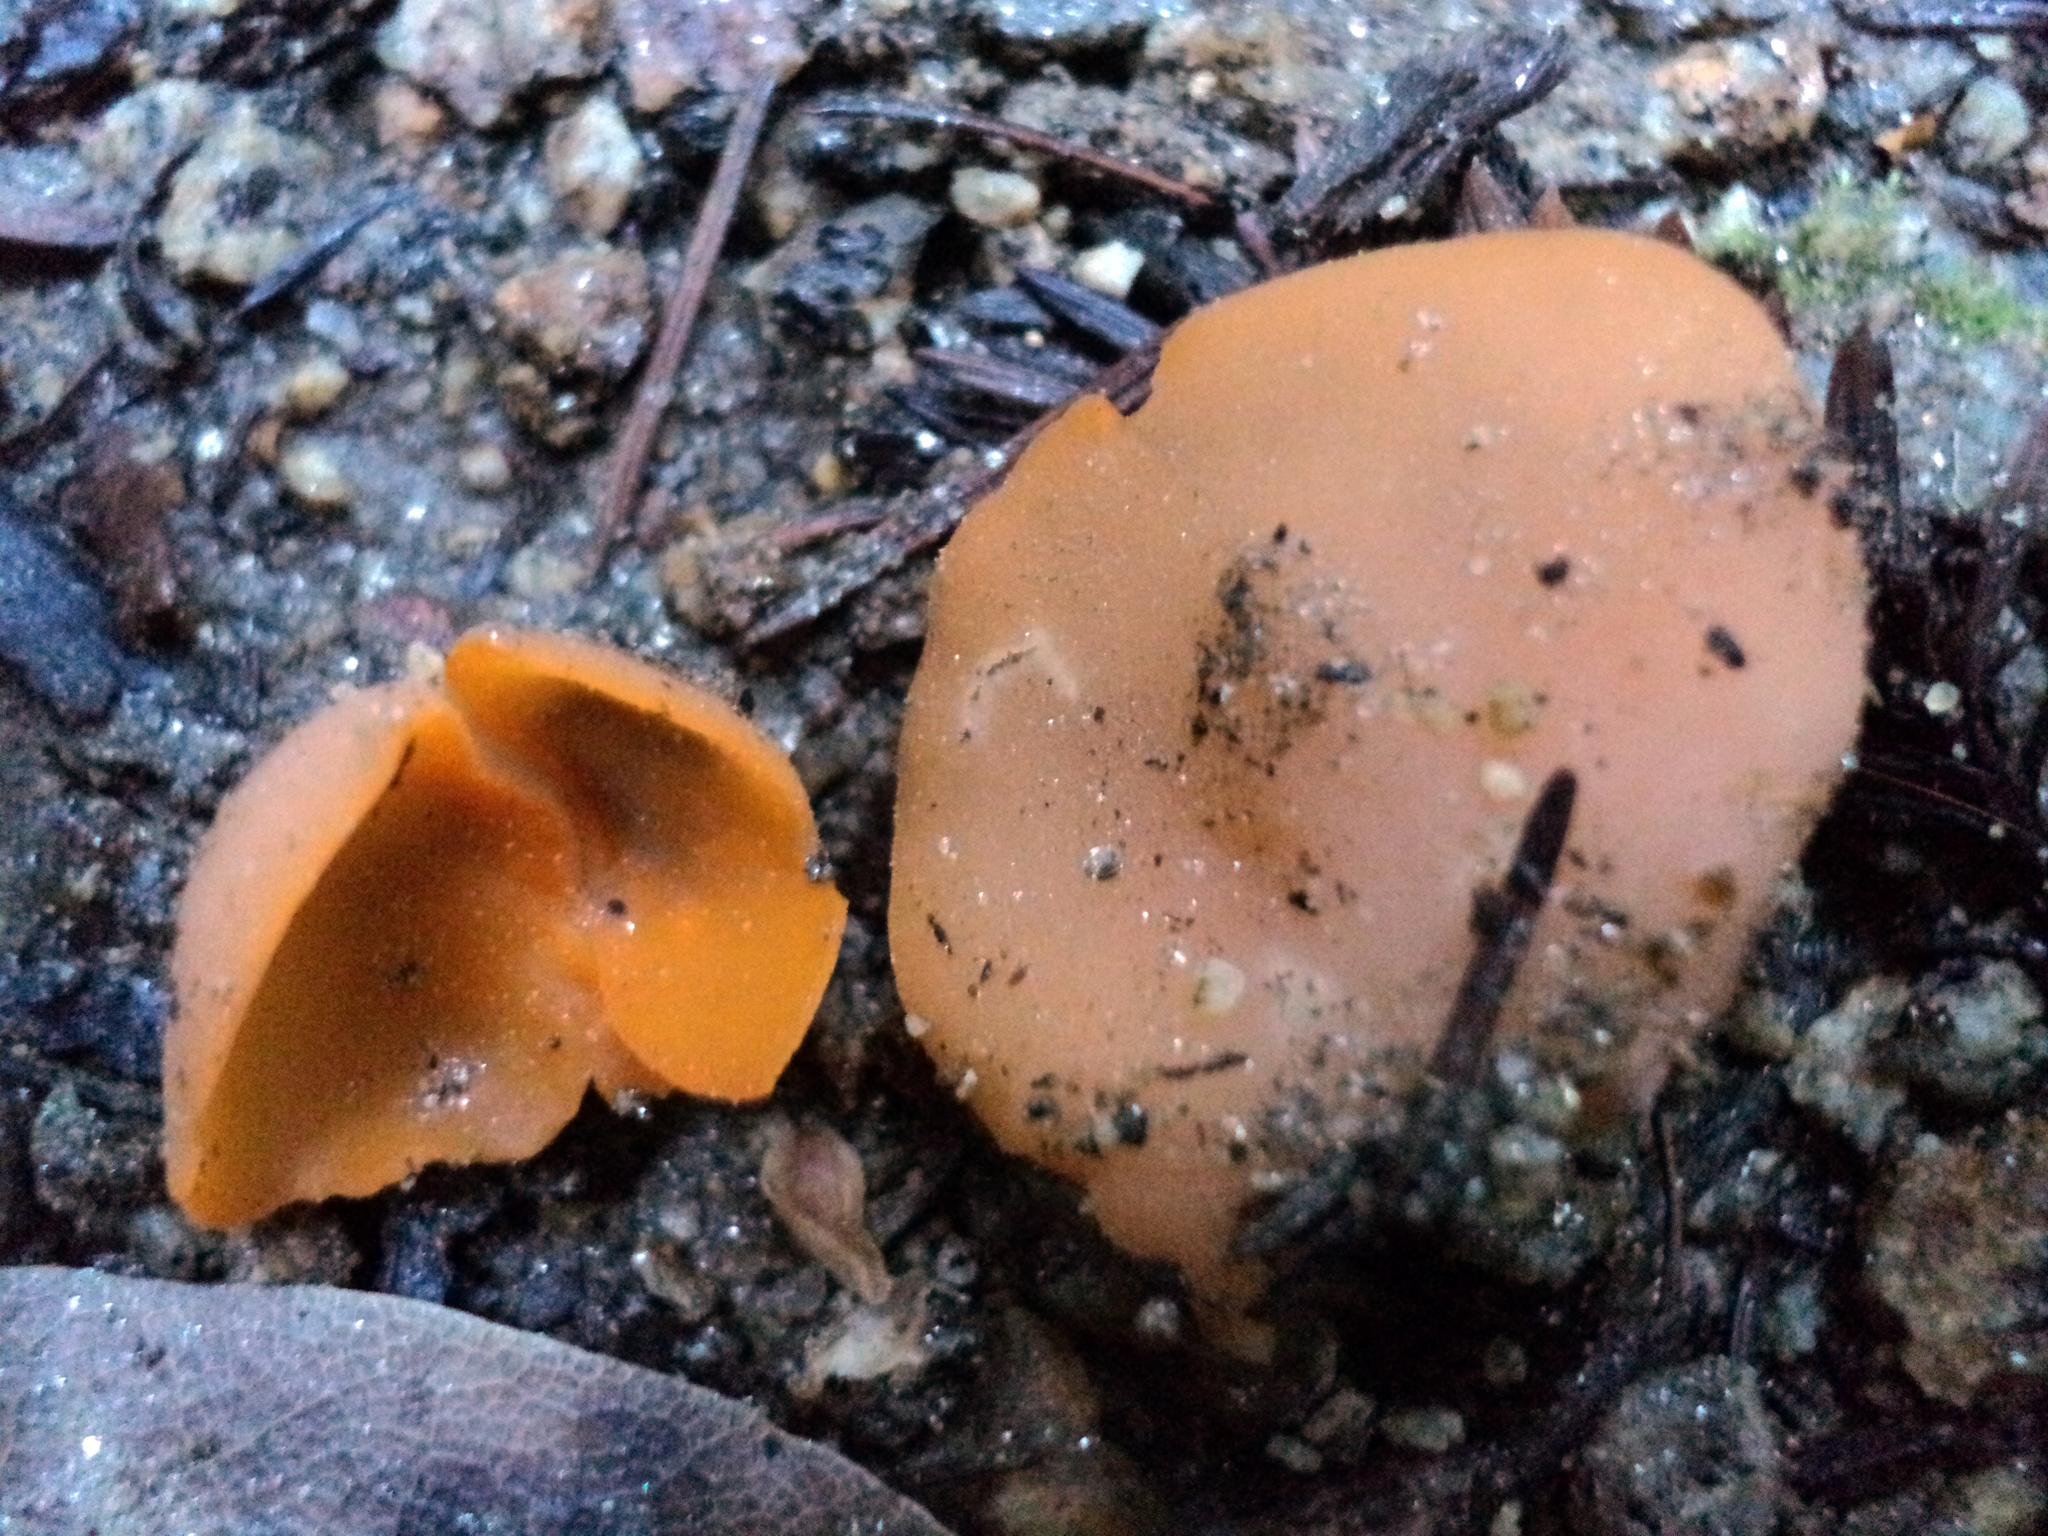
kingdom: Fungi
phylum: Ascomycota
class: Pezizomycetes
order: Pezizales
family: Pyronemataceae
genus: Aleuria
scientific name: Aleuria aurantia
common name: Orange peel fungus
